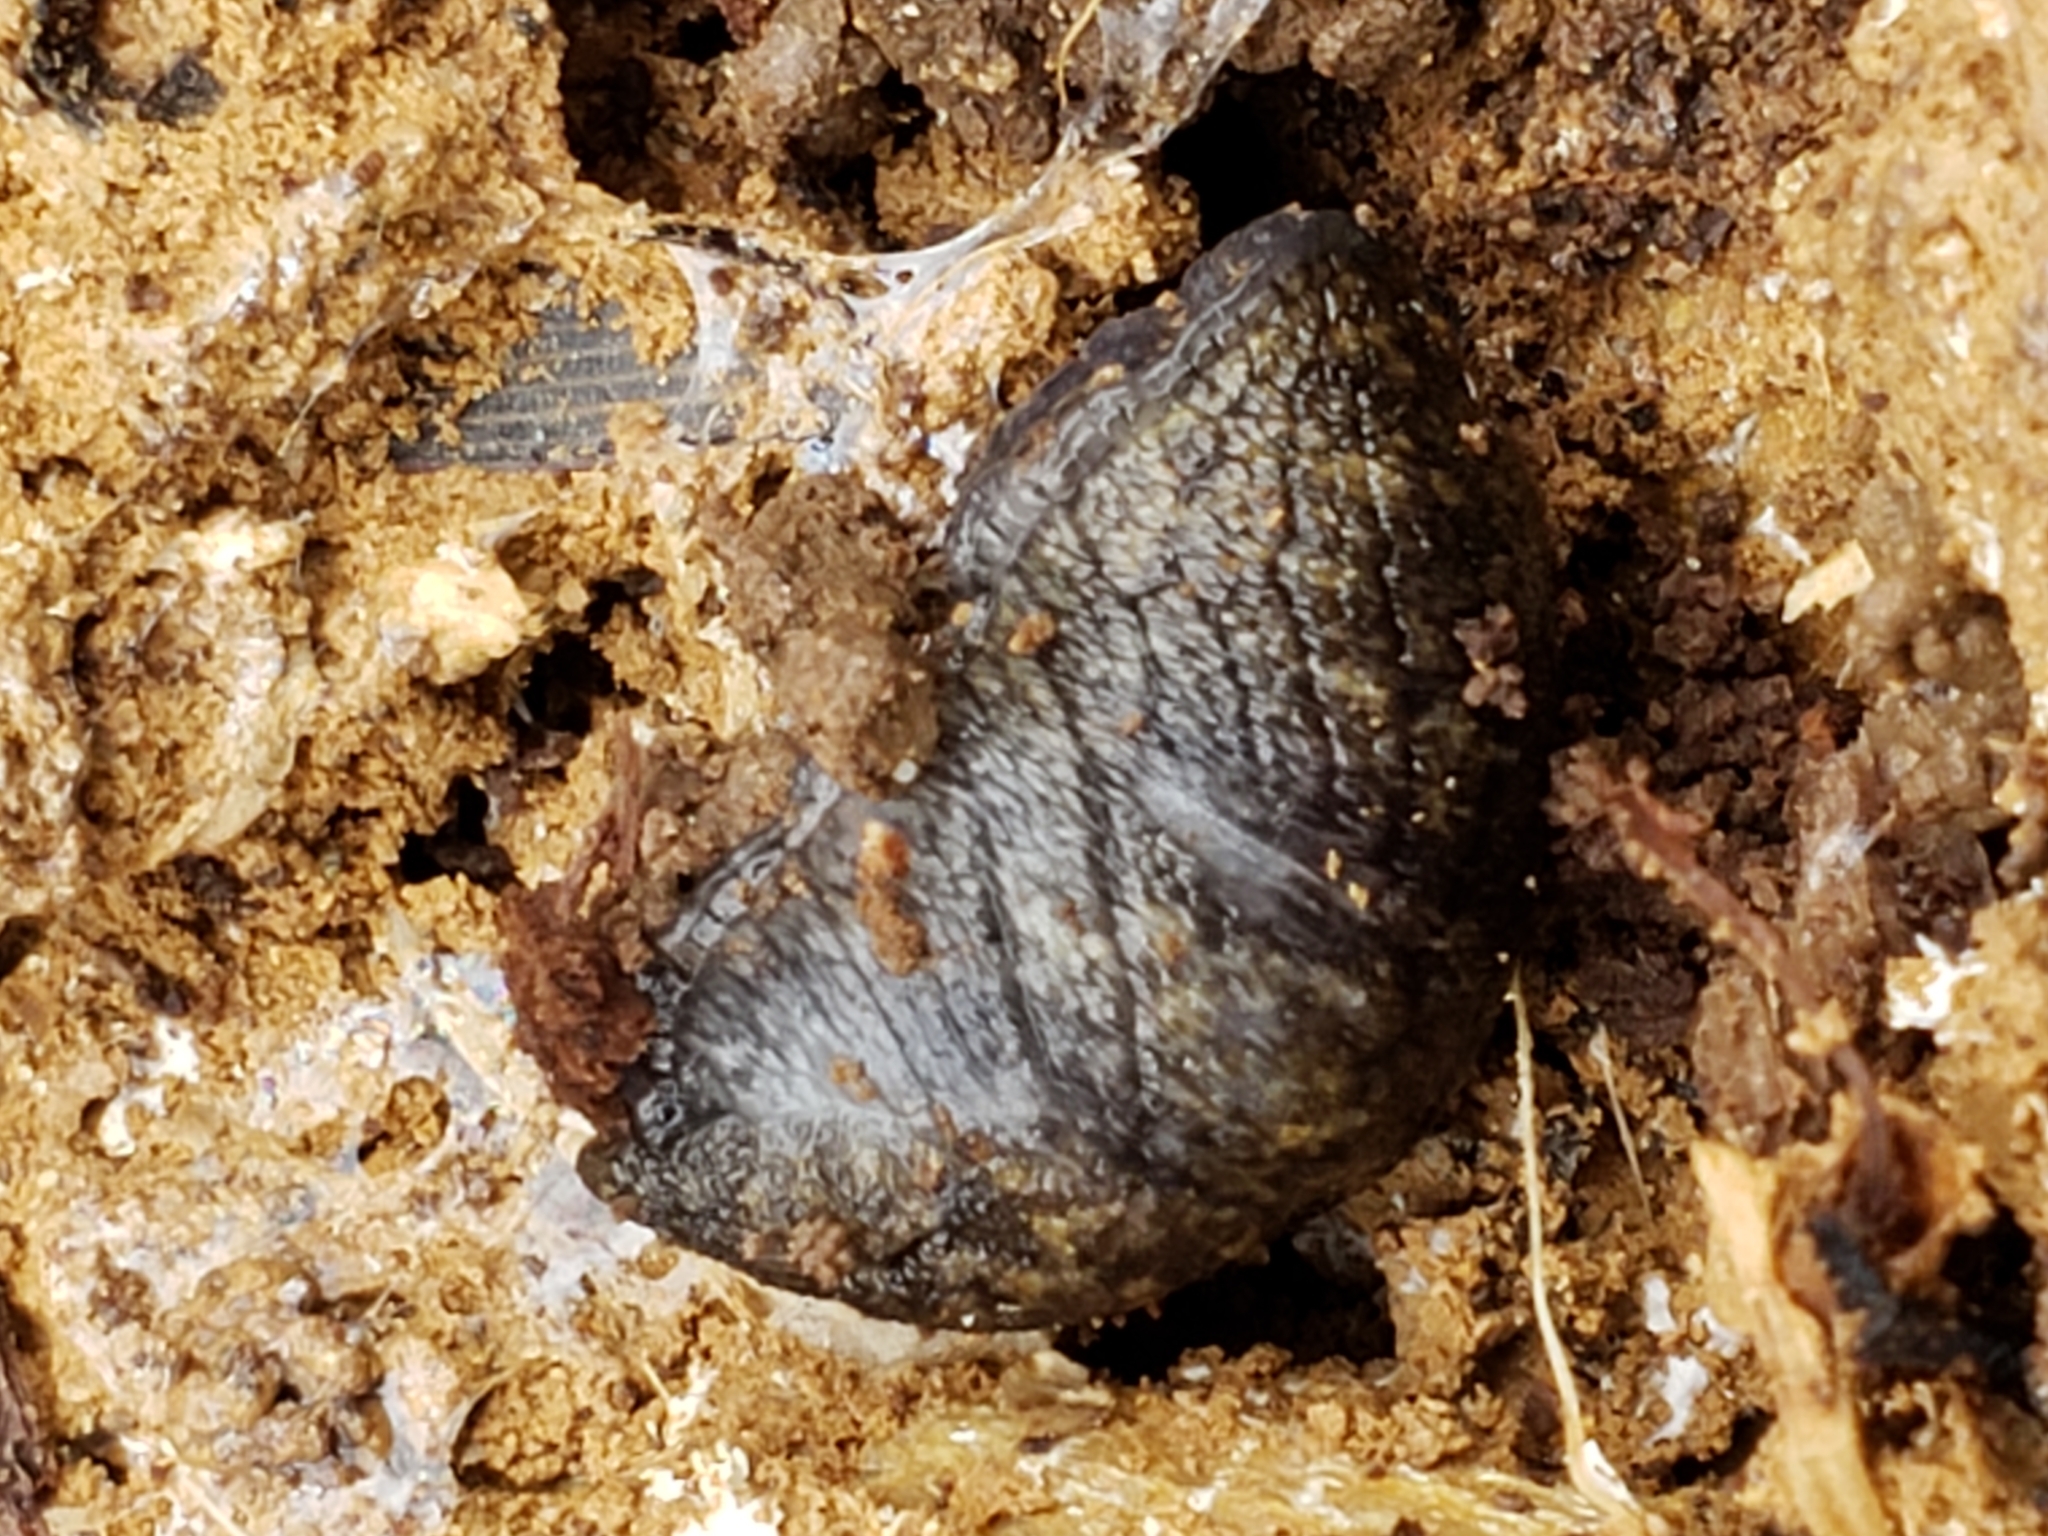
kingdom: Animalia
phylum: Mollusca
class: Gastropoda
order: Stylommatophora
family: Milacidae
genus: Tandonia
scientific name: Tandonia budapestensis
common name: Budapest slug
